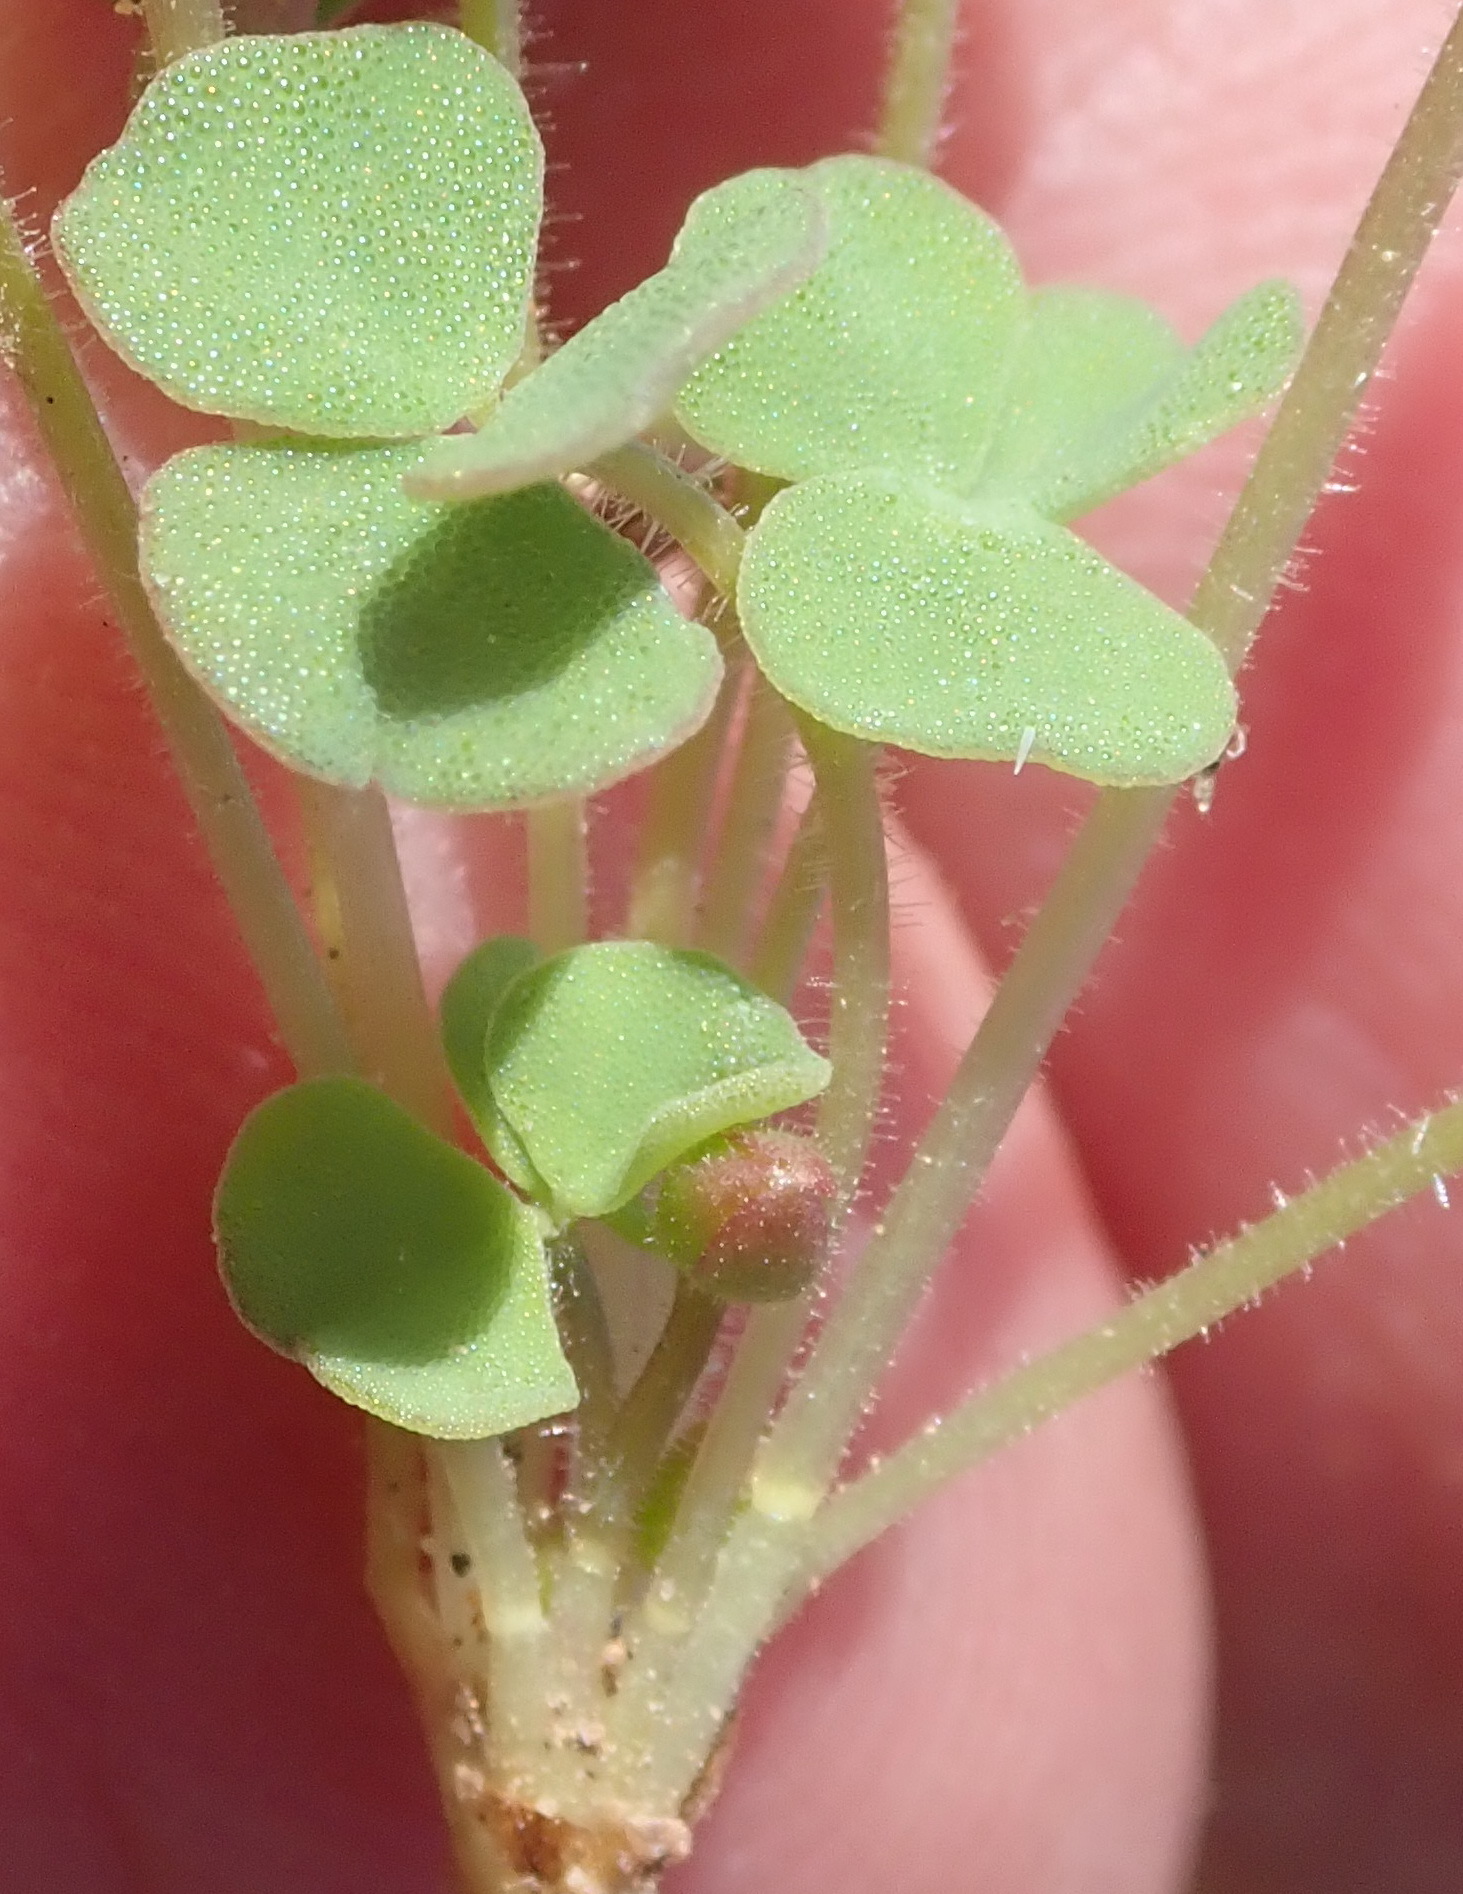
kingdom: Plantae
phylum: Tracheophyta
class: Magnoliopsida
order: Oxalidales
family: Oxalidaceae
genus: Oxalis
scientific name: Oxalis punctata
